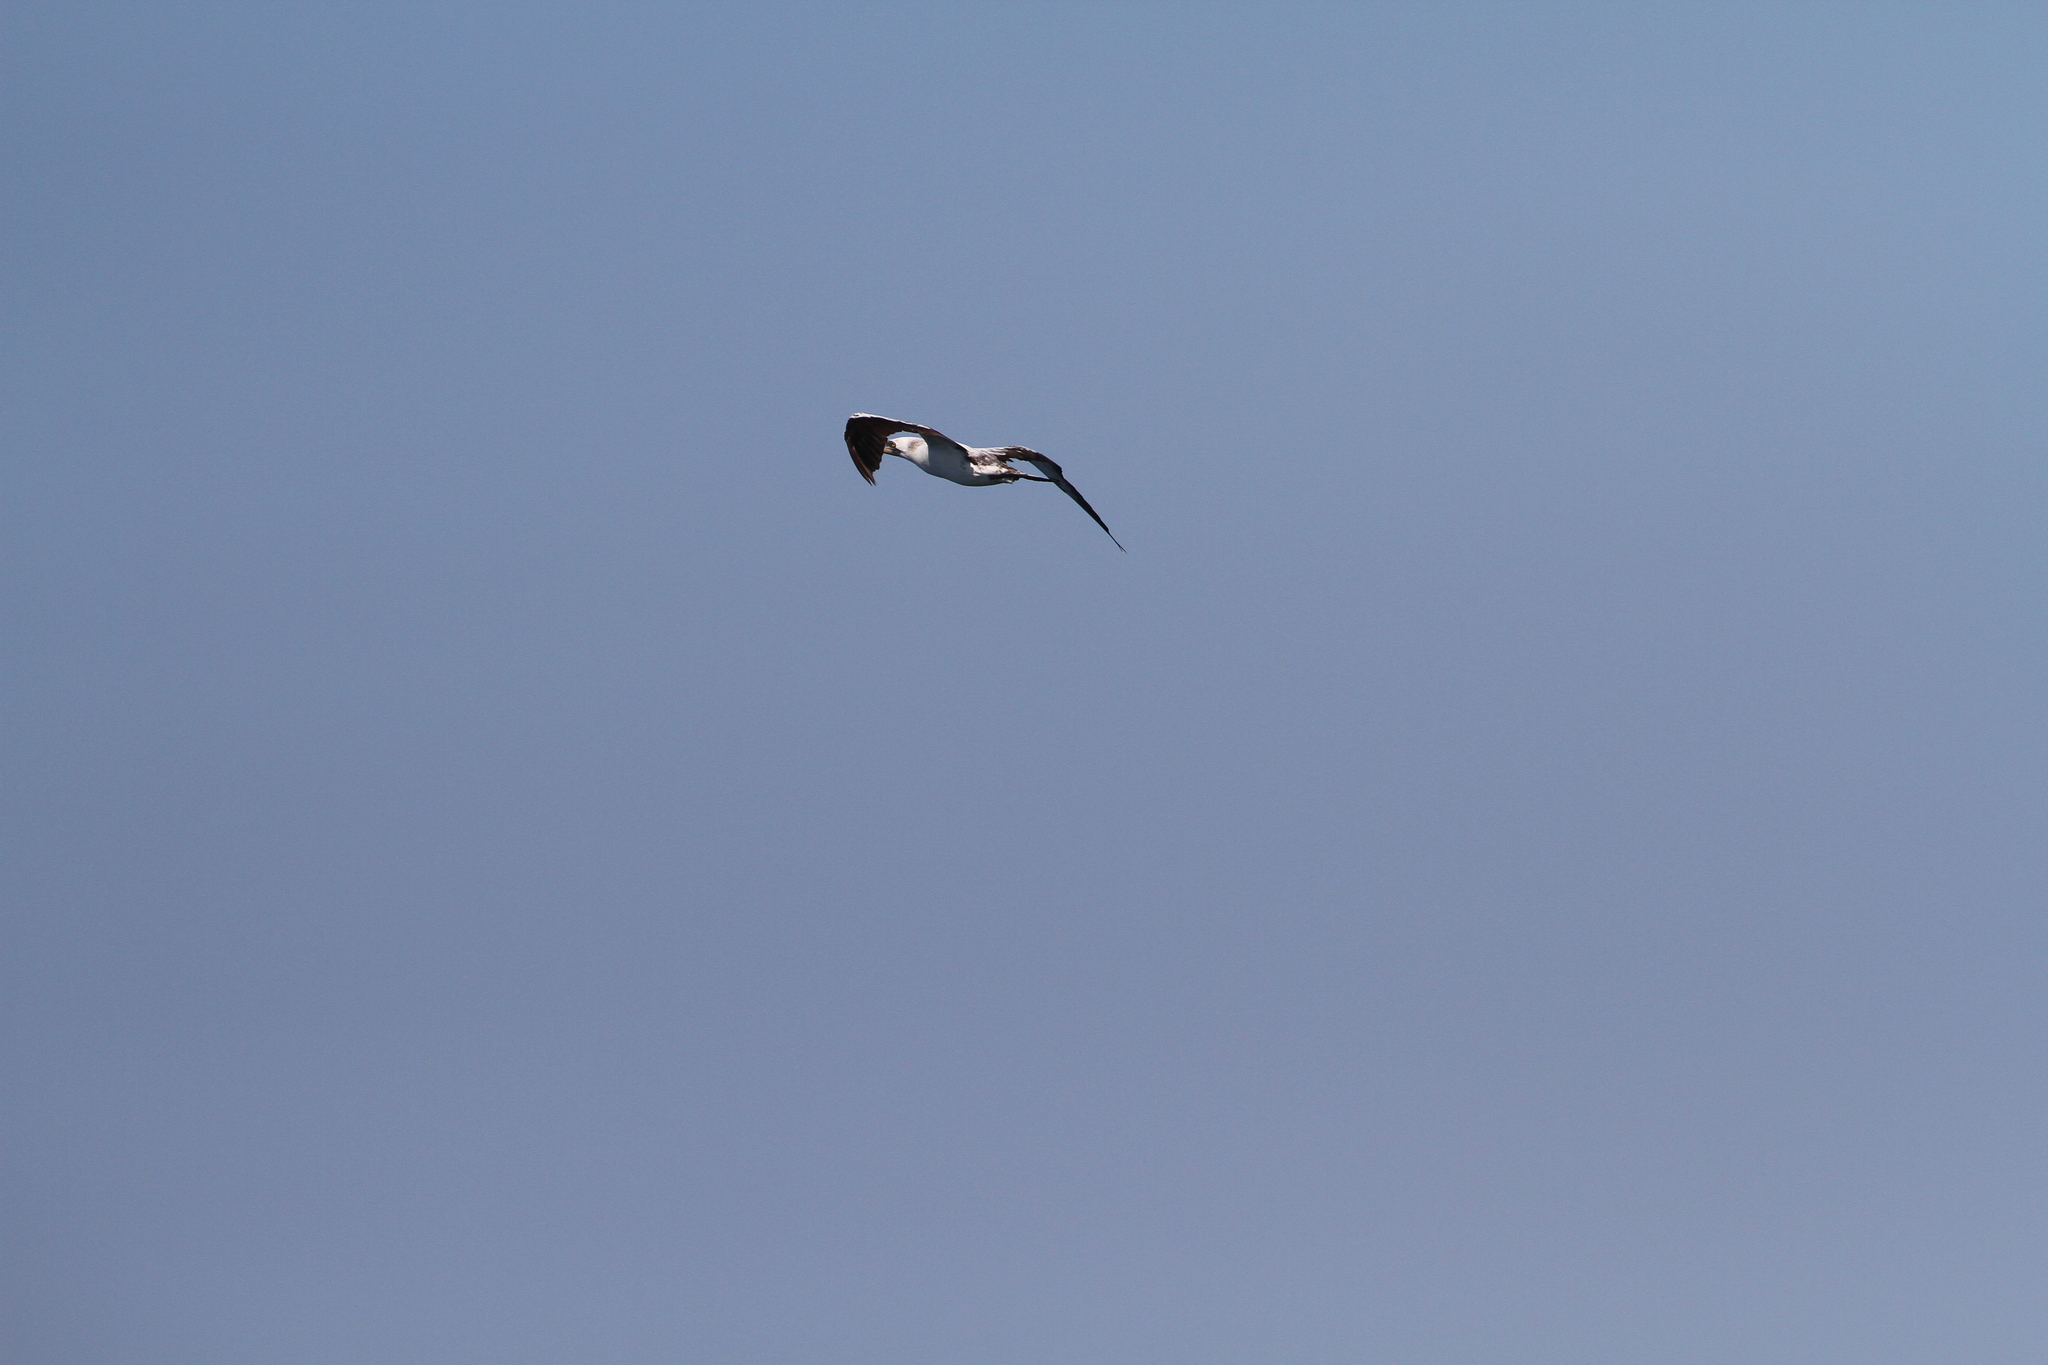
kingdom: Animalia
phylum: Chordata
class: Aves
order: Suliformes
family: Sulidae
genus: Sula
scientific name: Sula granti
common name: Nazca booby
